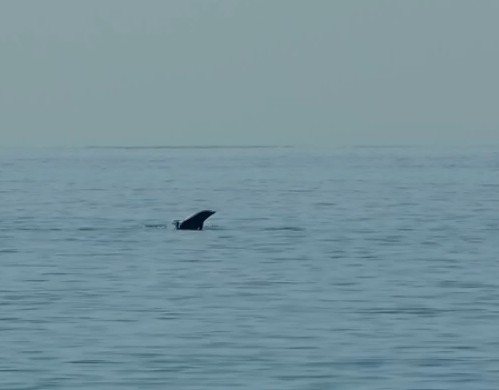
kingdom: Animalia
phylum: Chordata
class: Mammalia
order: Cetacea
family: Delphinidae
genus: Tursiops
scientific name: Tursiops aduncus
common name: Indo-pacific bottlenose dolphin
